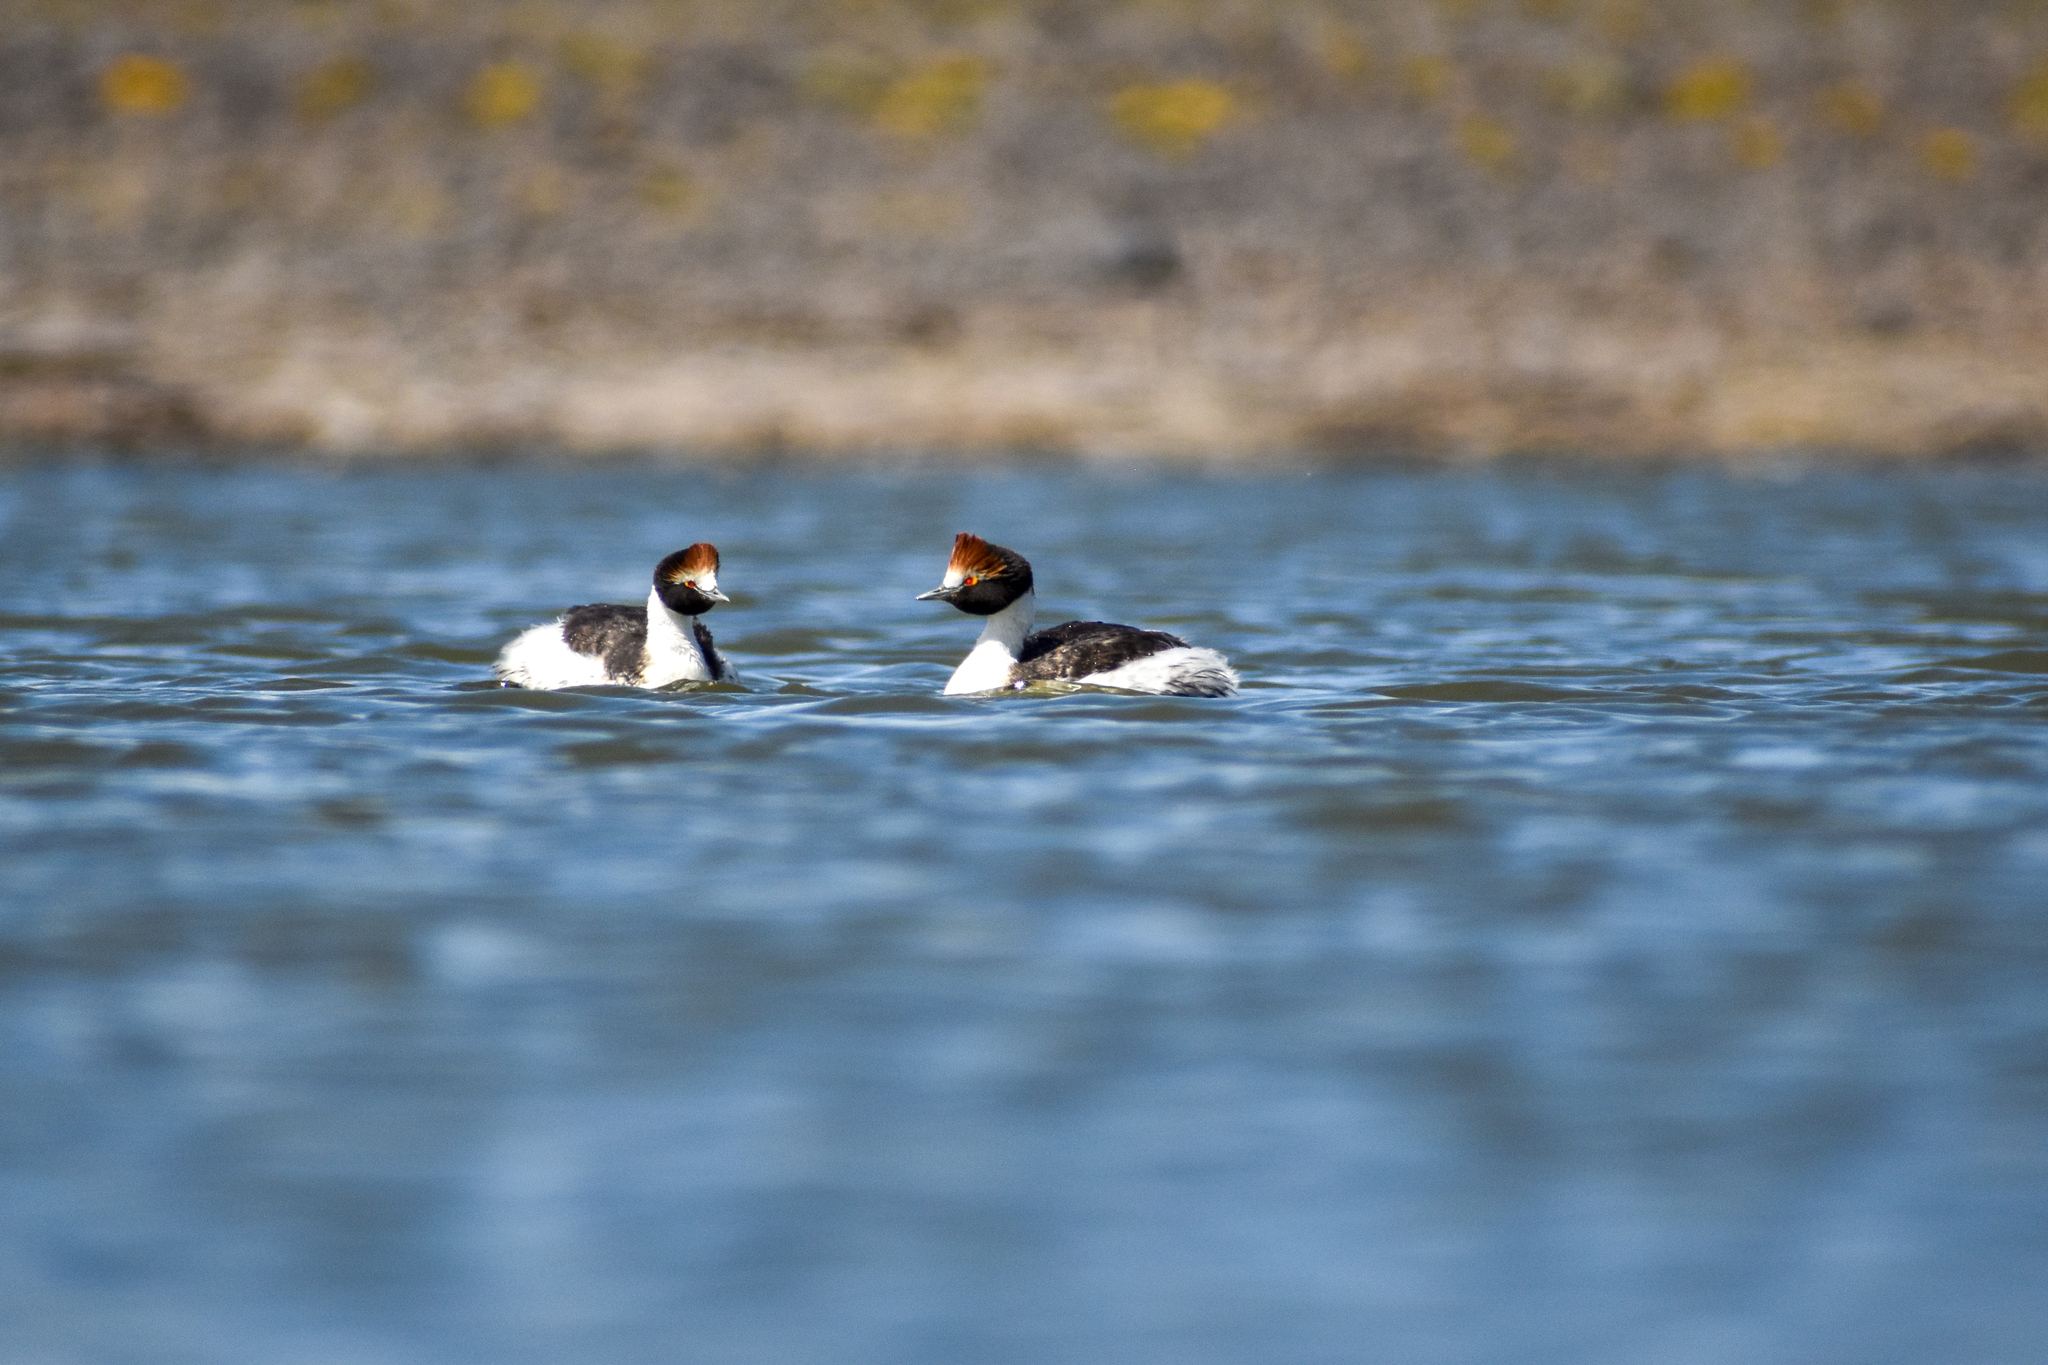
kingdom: Animalia
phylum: Chordata
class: Aves
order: Podicipediformes
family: Podicipedidae
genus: Podiceps
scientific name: Podiceps gallardoi
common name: Hooded grebe
